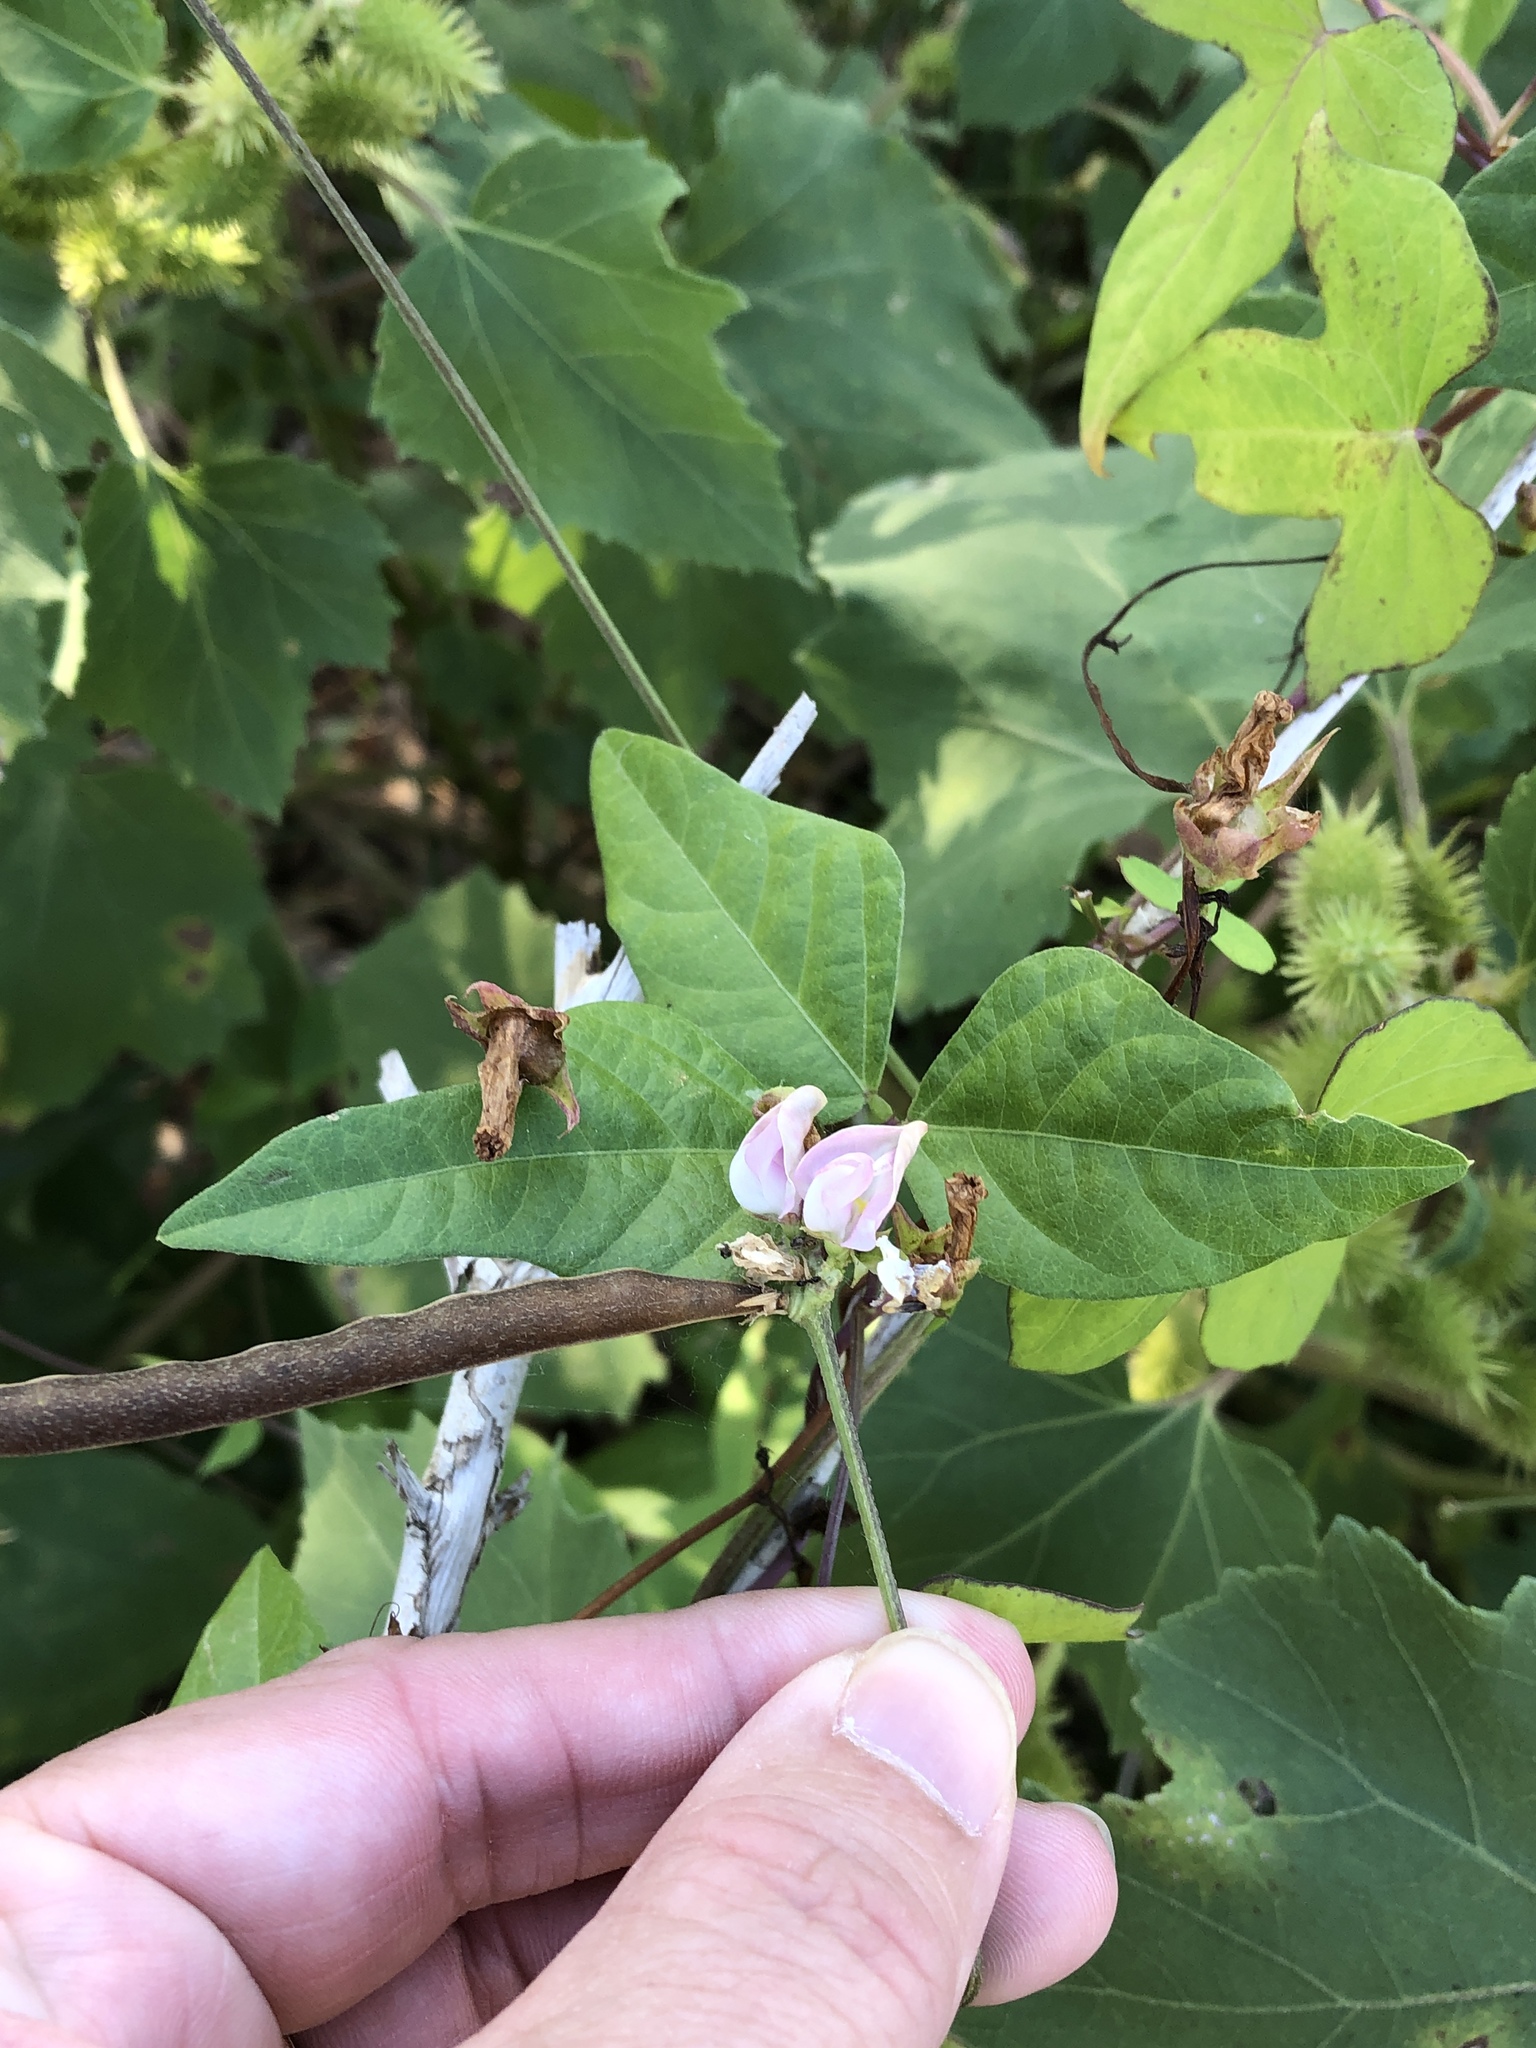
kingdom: Plantae
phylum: Tracheophyta
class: Magnoliopsida
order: Fabales
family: Fabaceae
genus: Strophostyles
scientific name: Strophostyles helvola
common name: Trailing wild bean
